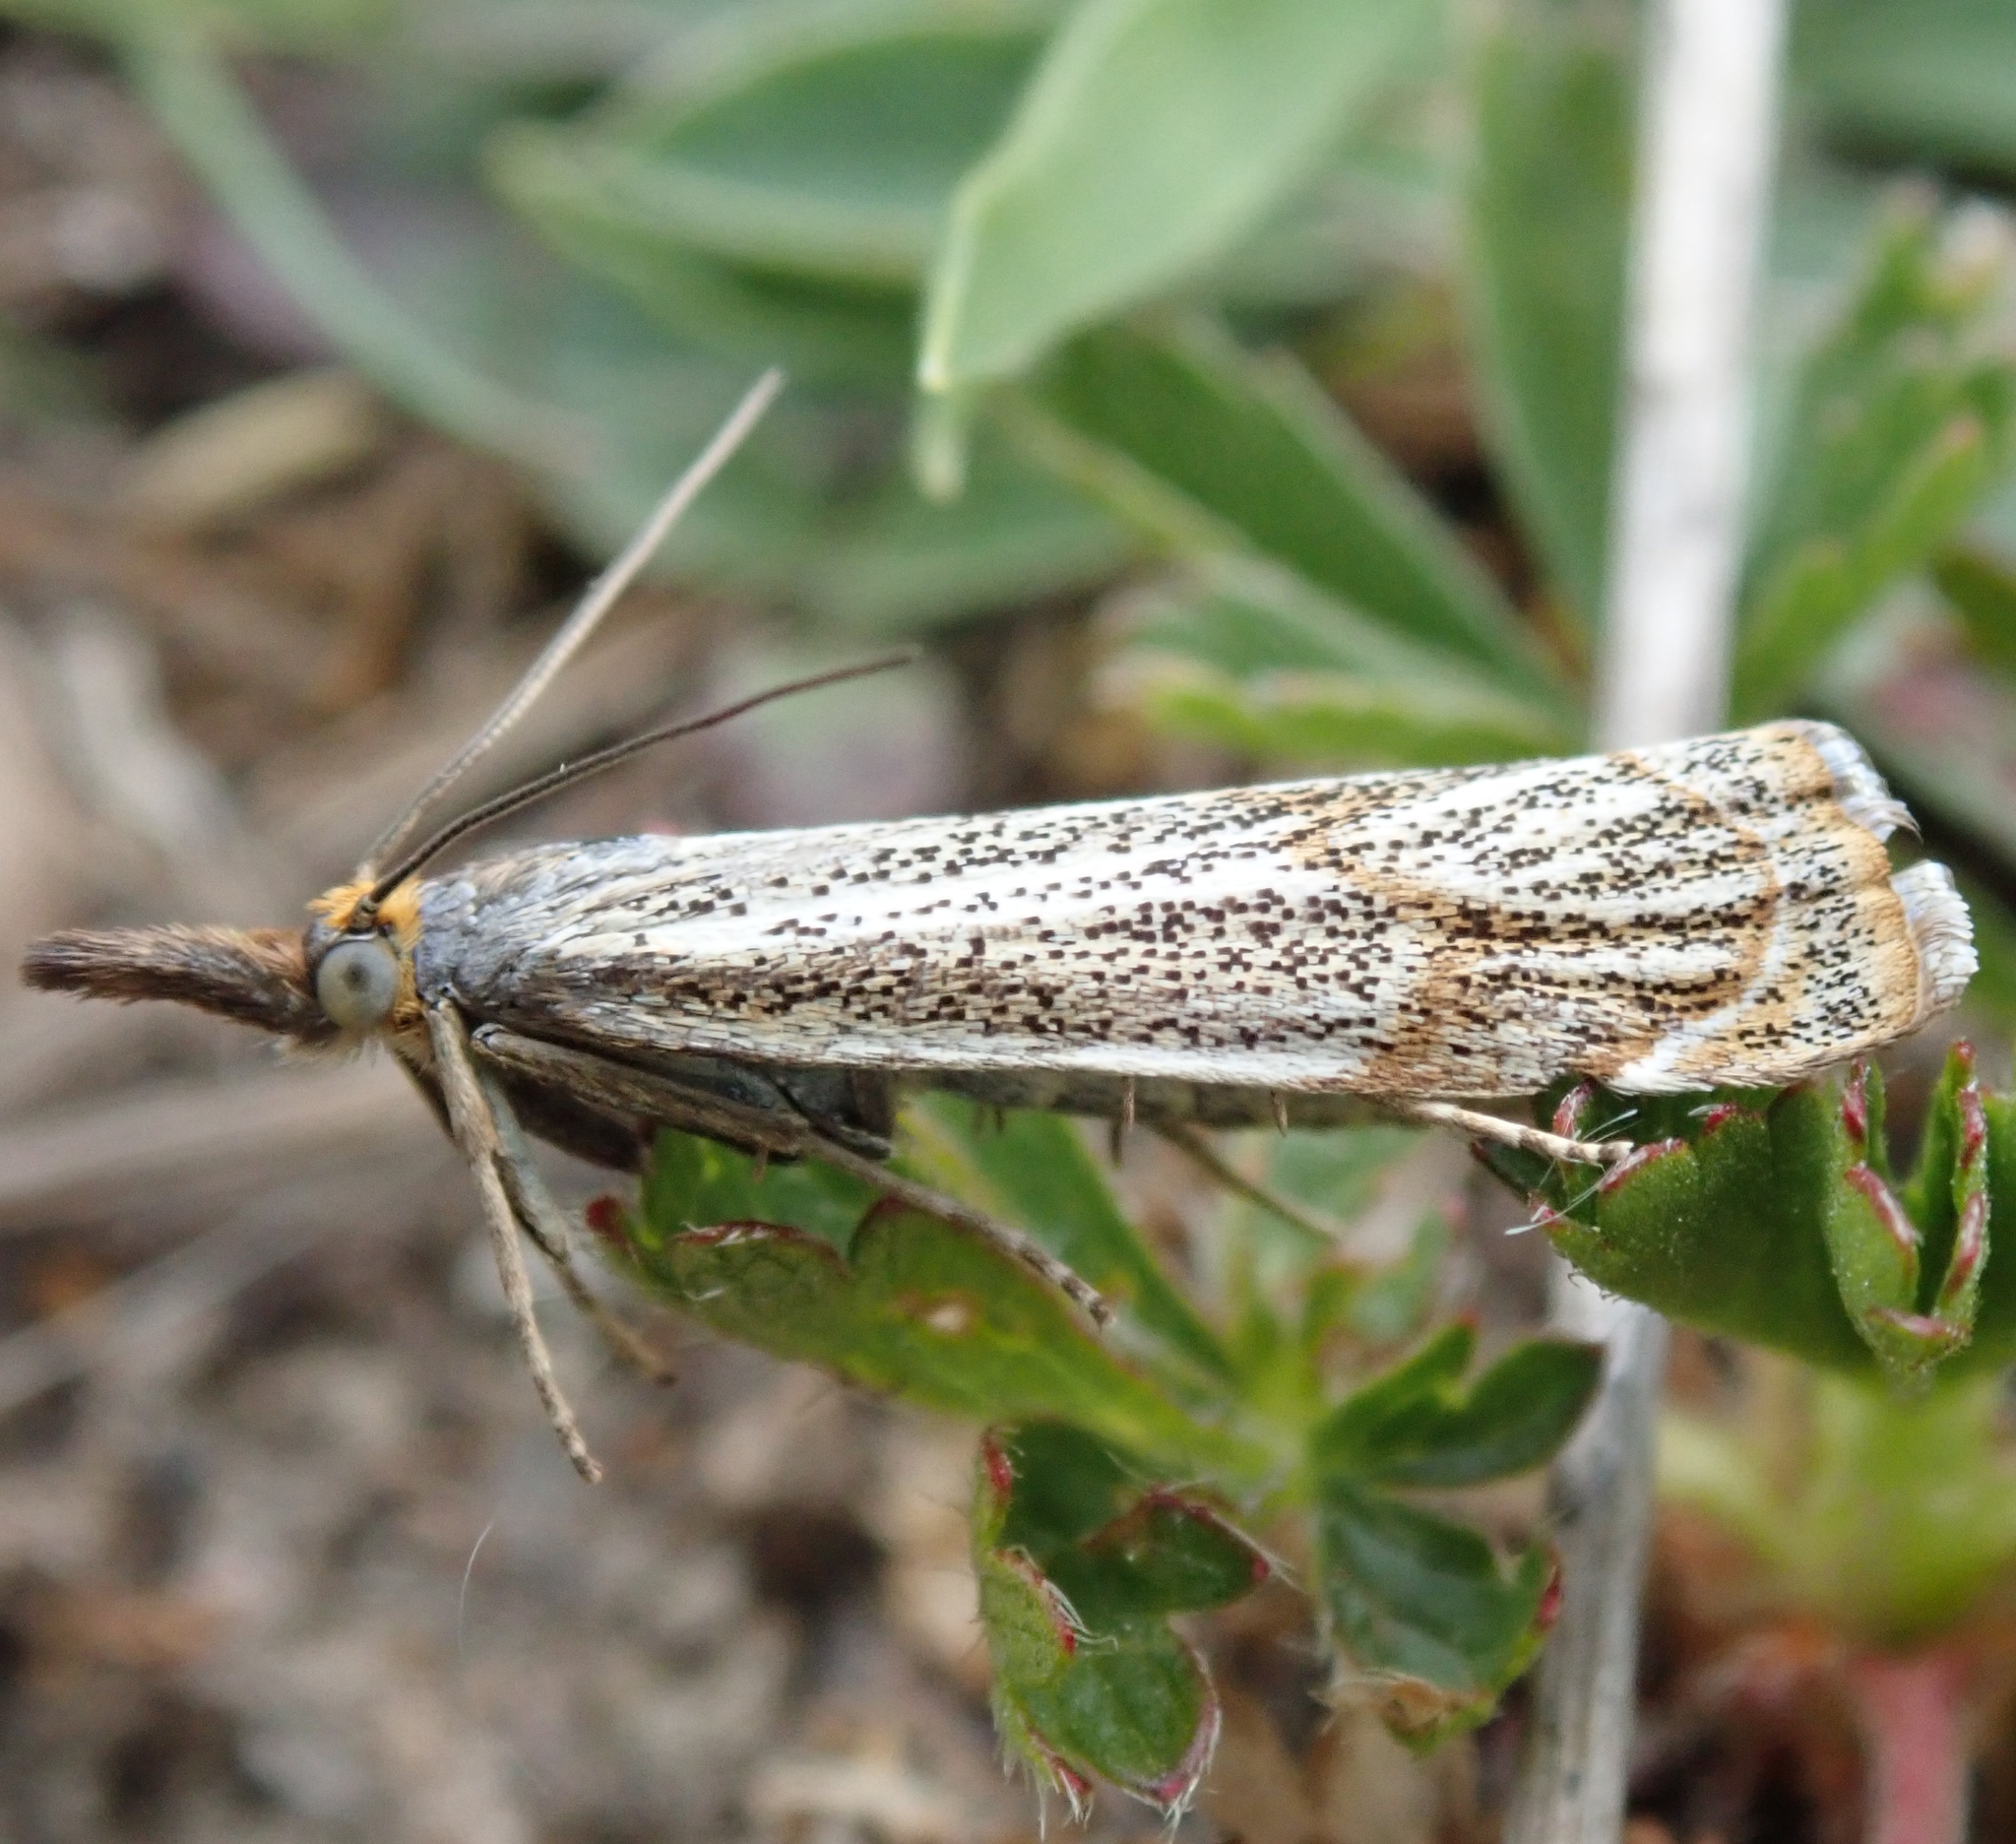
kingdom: Animalia
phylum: Arthropoda
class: Insecta
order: Lepidoptera
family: Crambidae
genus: Thisanotia
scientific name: Thisanotia chrysonuchella
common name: Powdered grass-veneer
